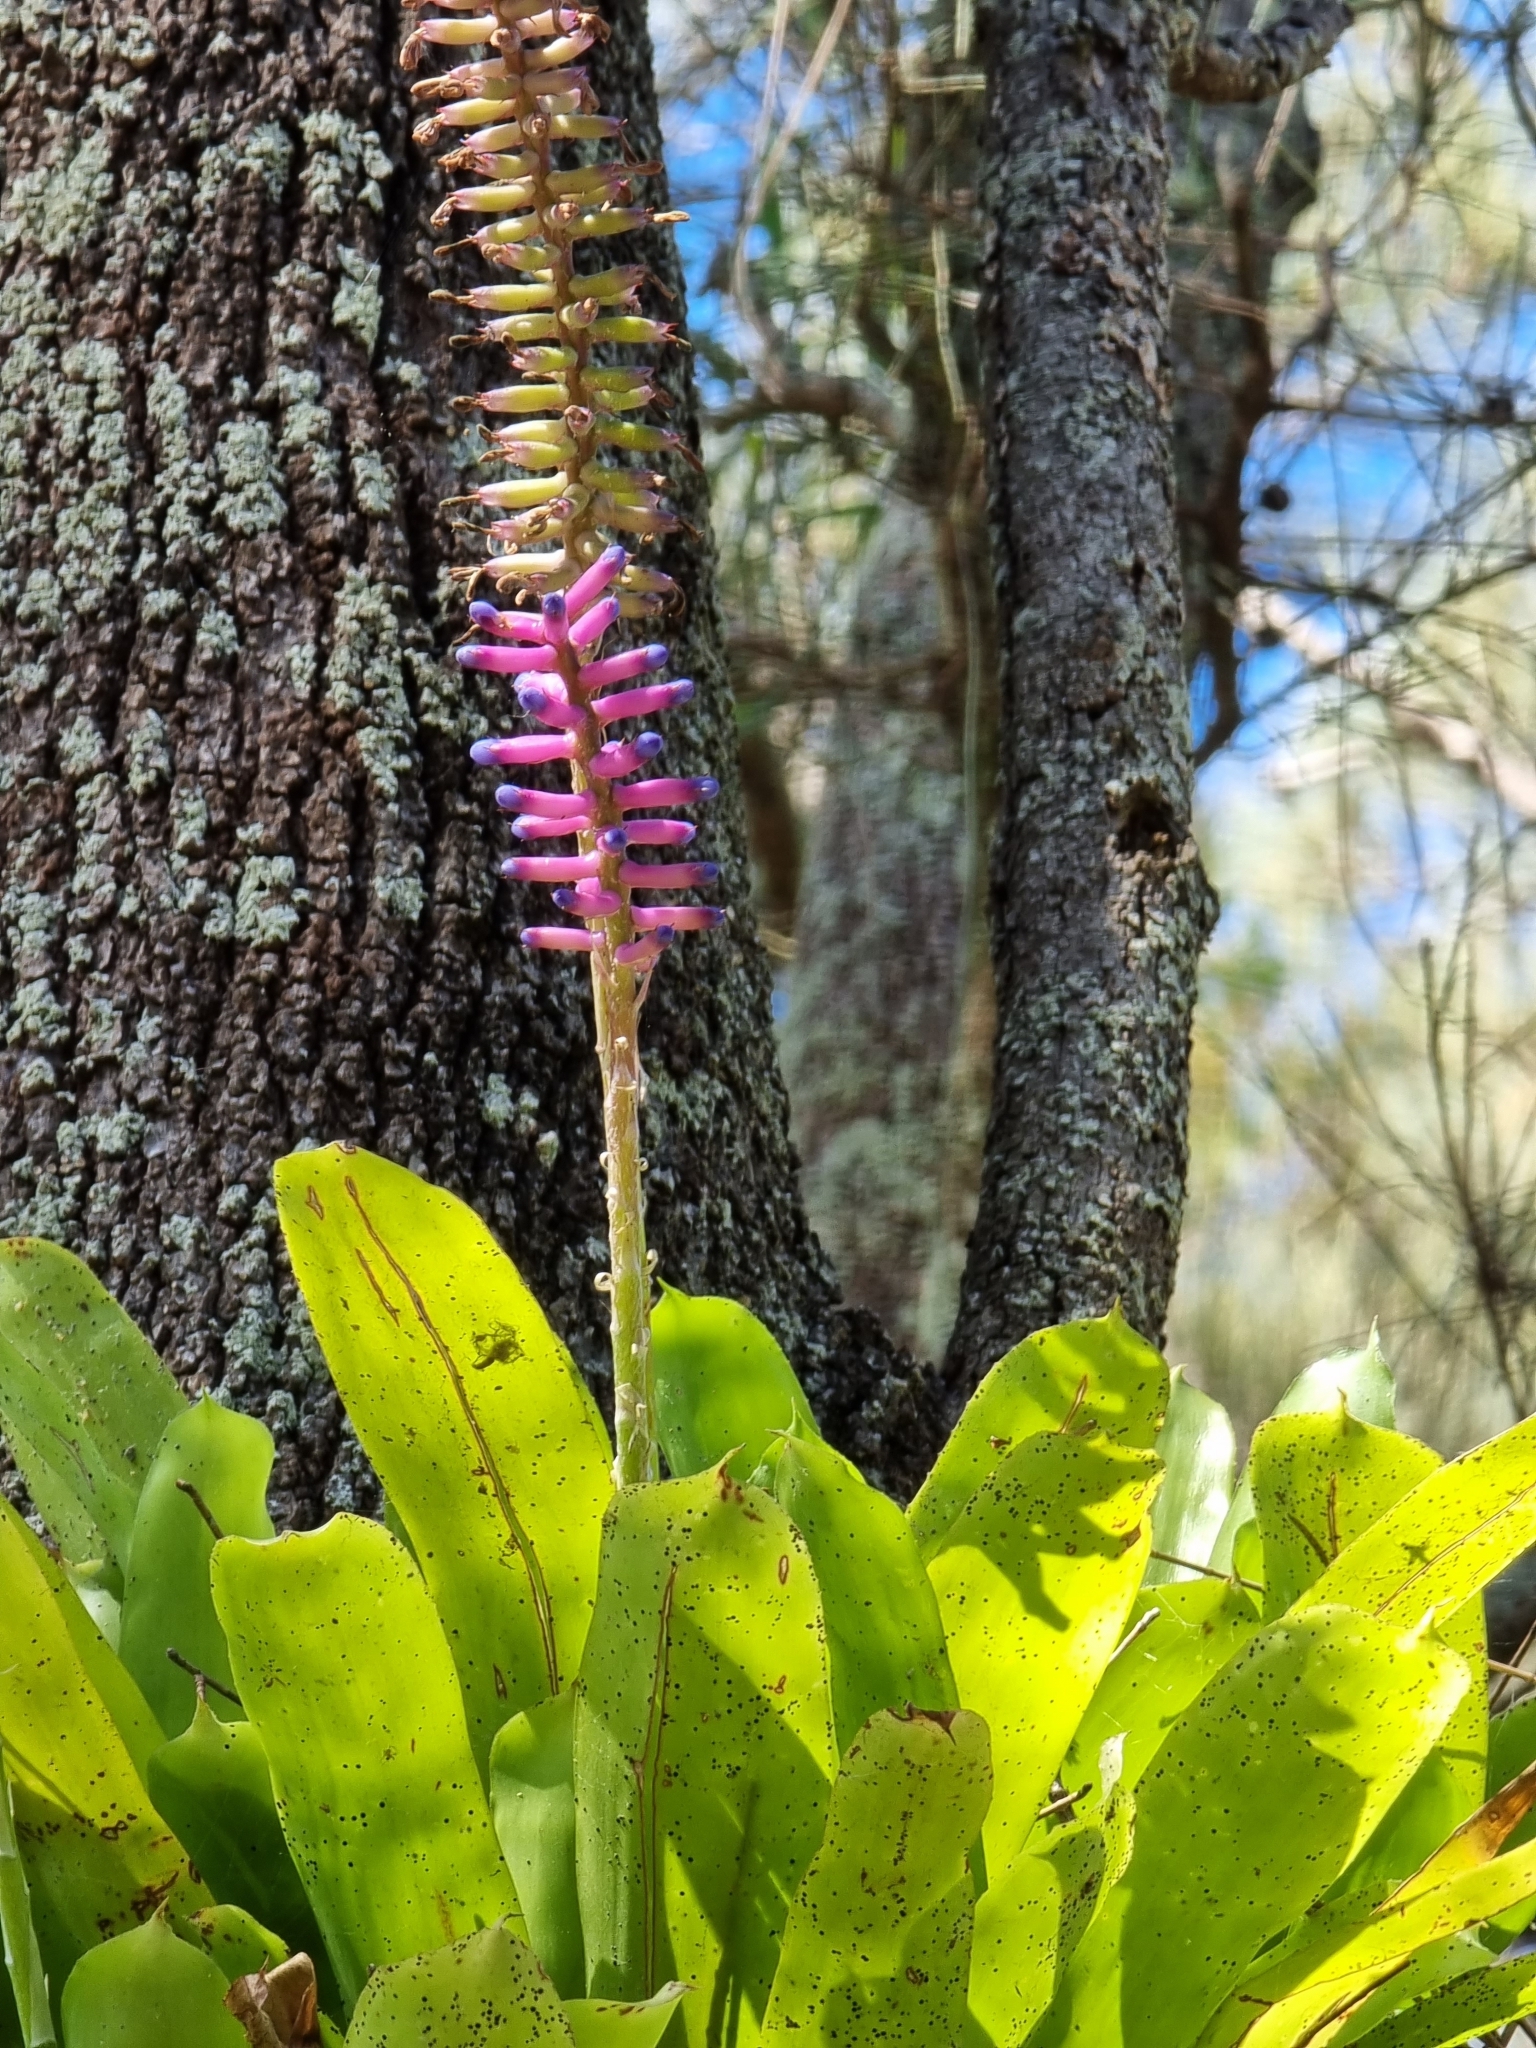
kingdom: Plantae
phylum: Tracheophyta
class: Liliopsida
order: Poales
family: Bromeliaceae
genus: Aechmea
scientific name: Aechmea gamosepala
